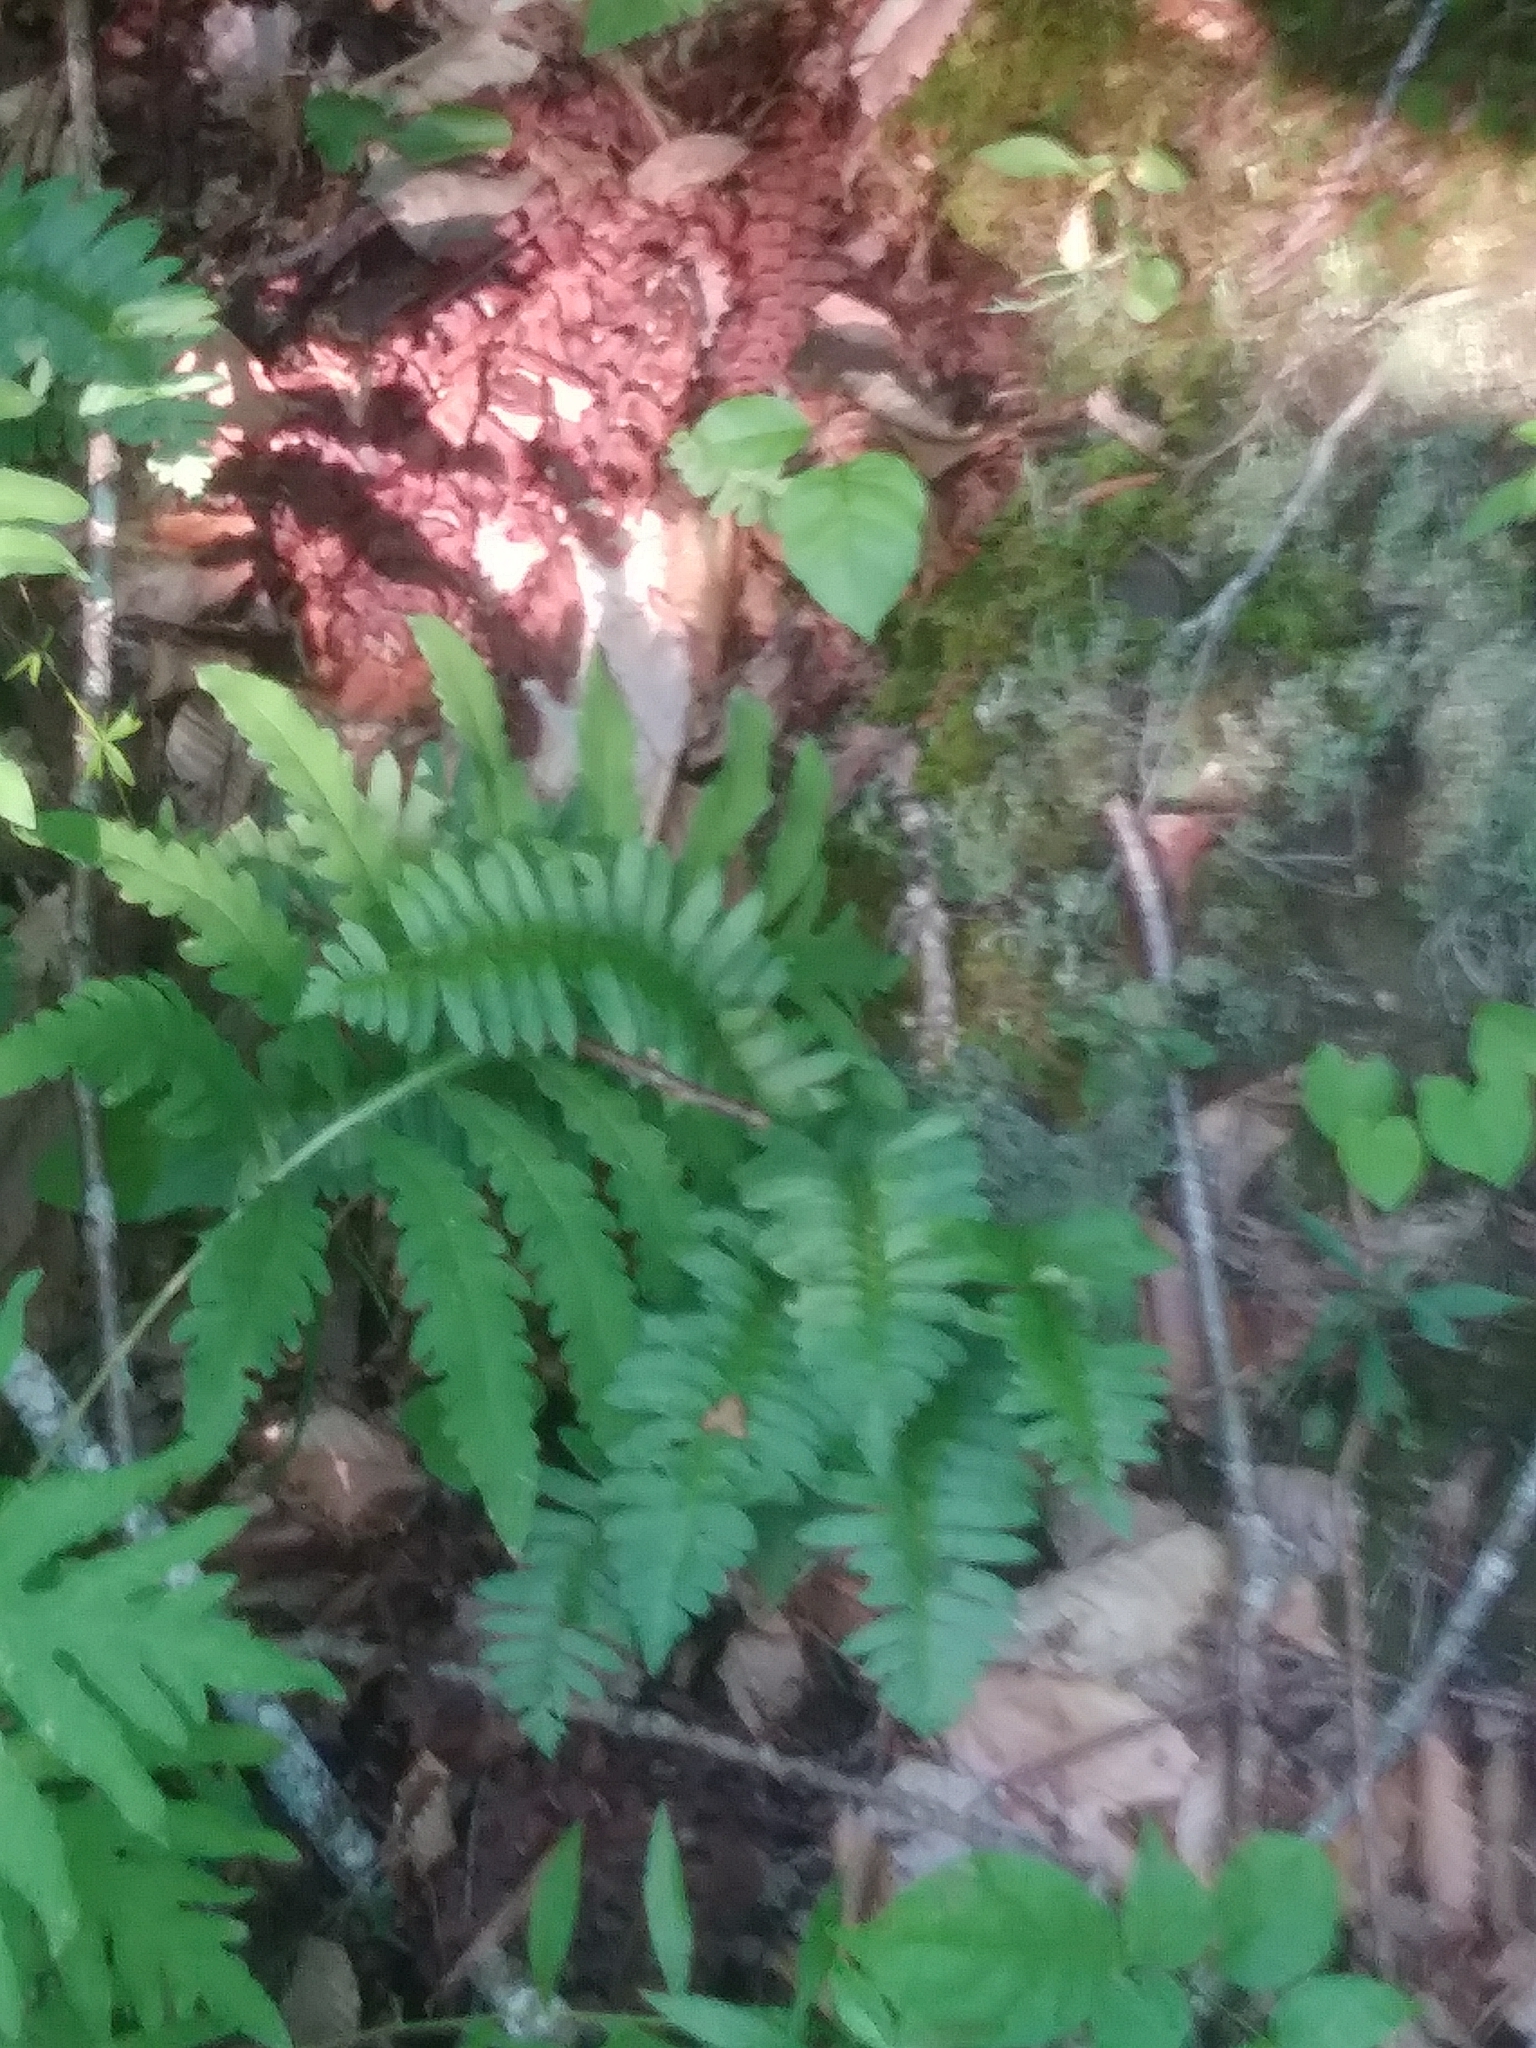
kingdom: Plantae
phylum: Tracheophyta
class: Polypodiopsida
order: Polypodiales
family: Dryopteridaceae
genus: Polystichum
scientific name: Polystichum acrostichoides
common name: Christmas fern
